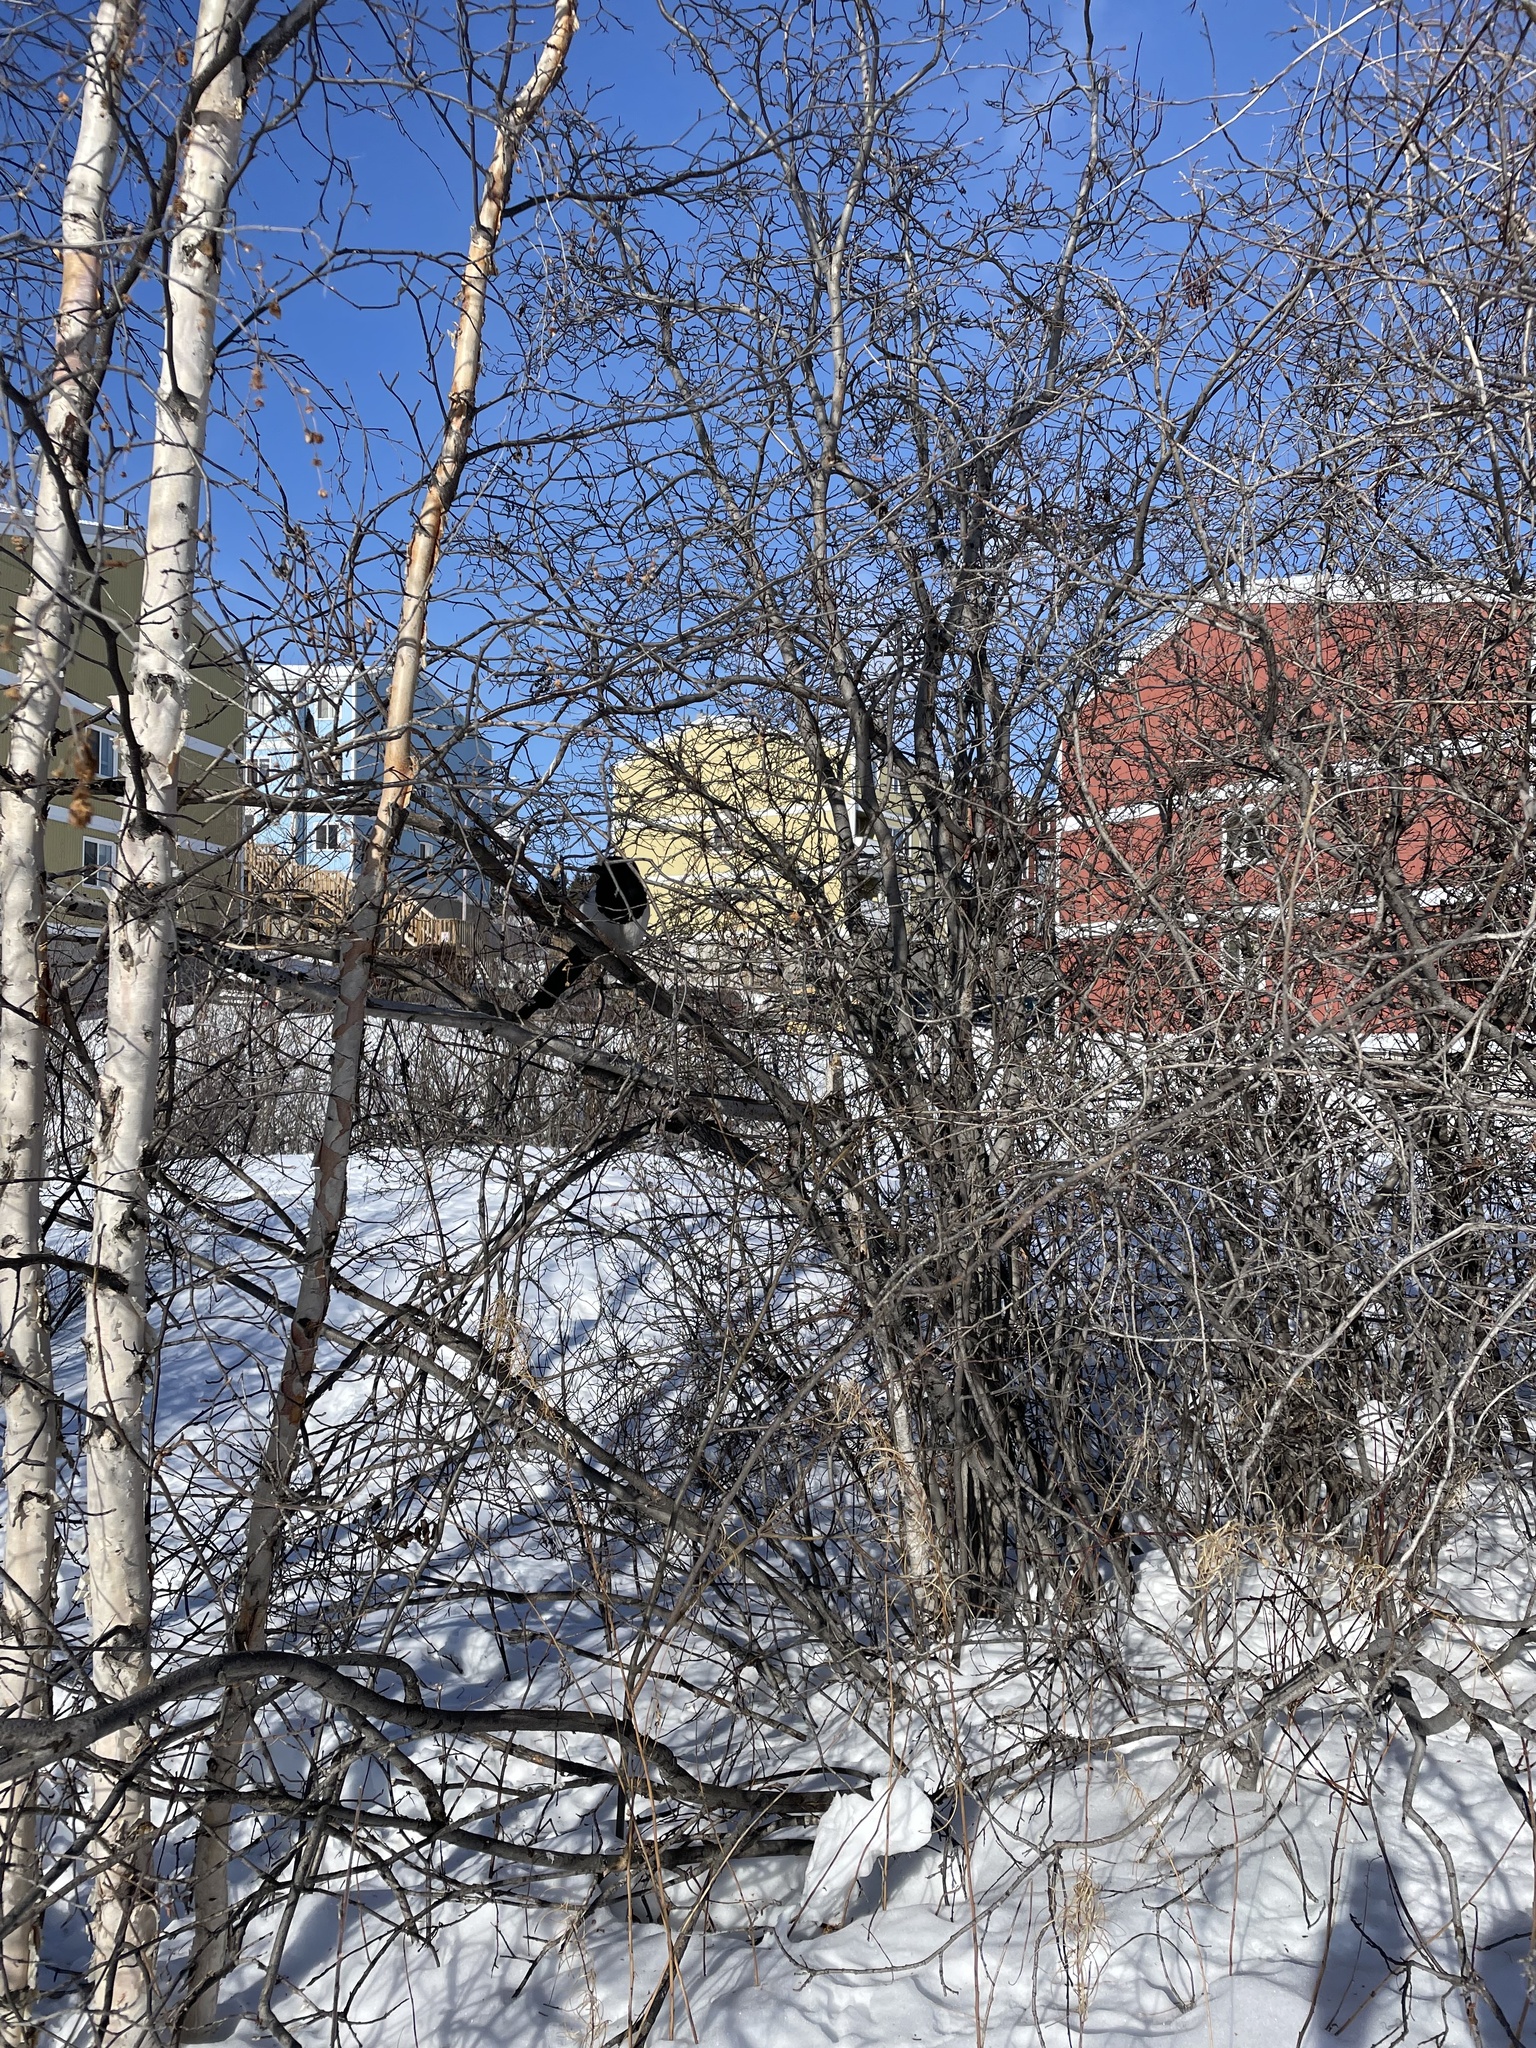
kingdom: Animalia
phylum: Chordata
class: Aves
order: Passeriformes
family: Corvidae
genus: Pica
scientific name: Pica hudsonia
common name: Black-billed magpie
